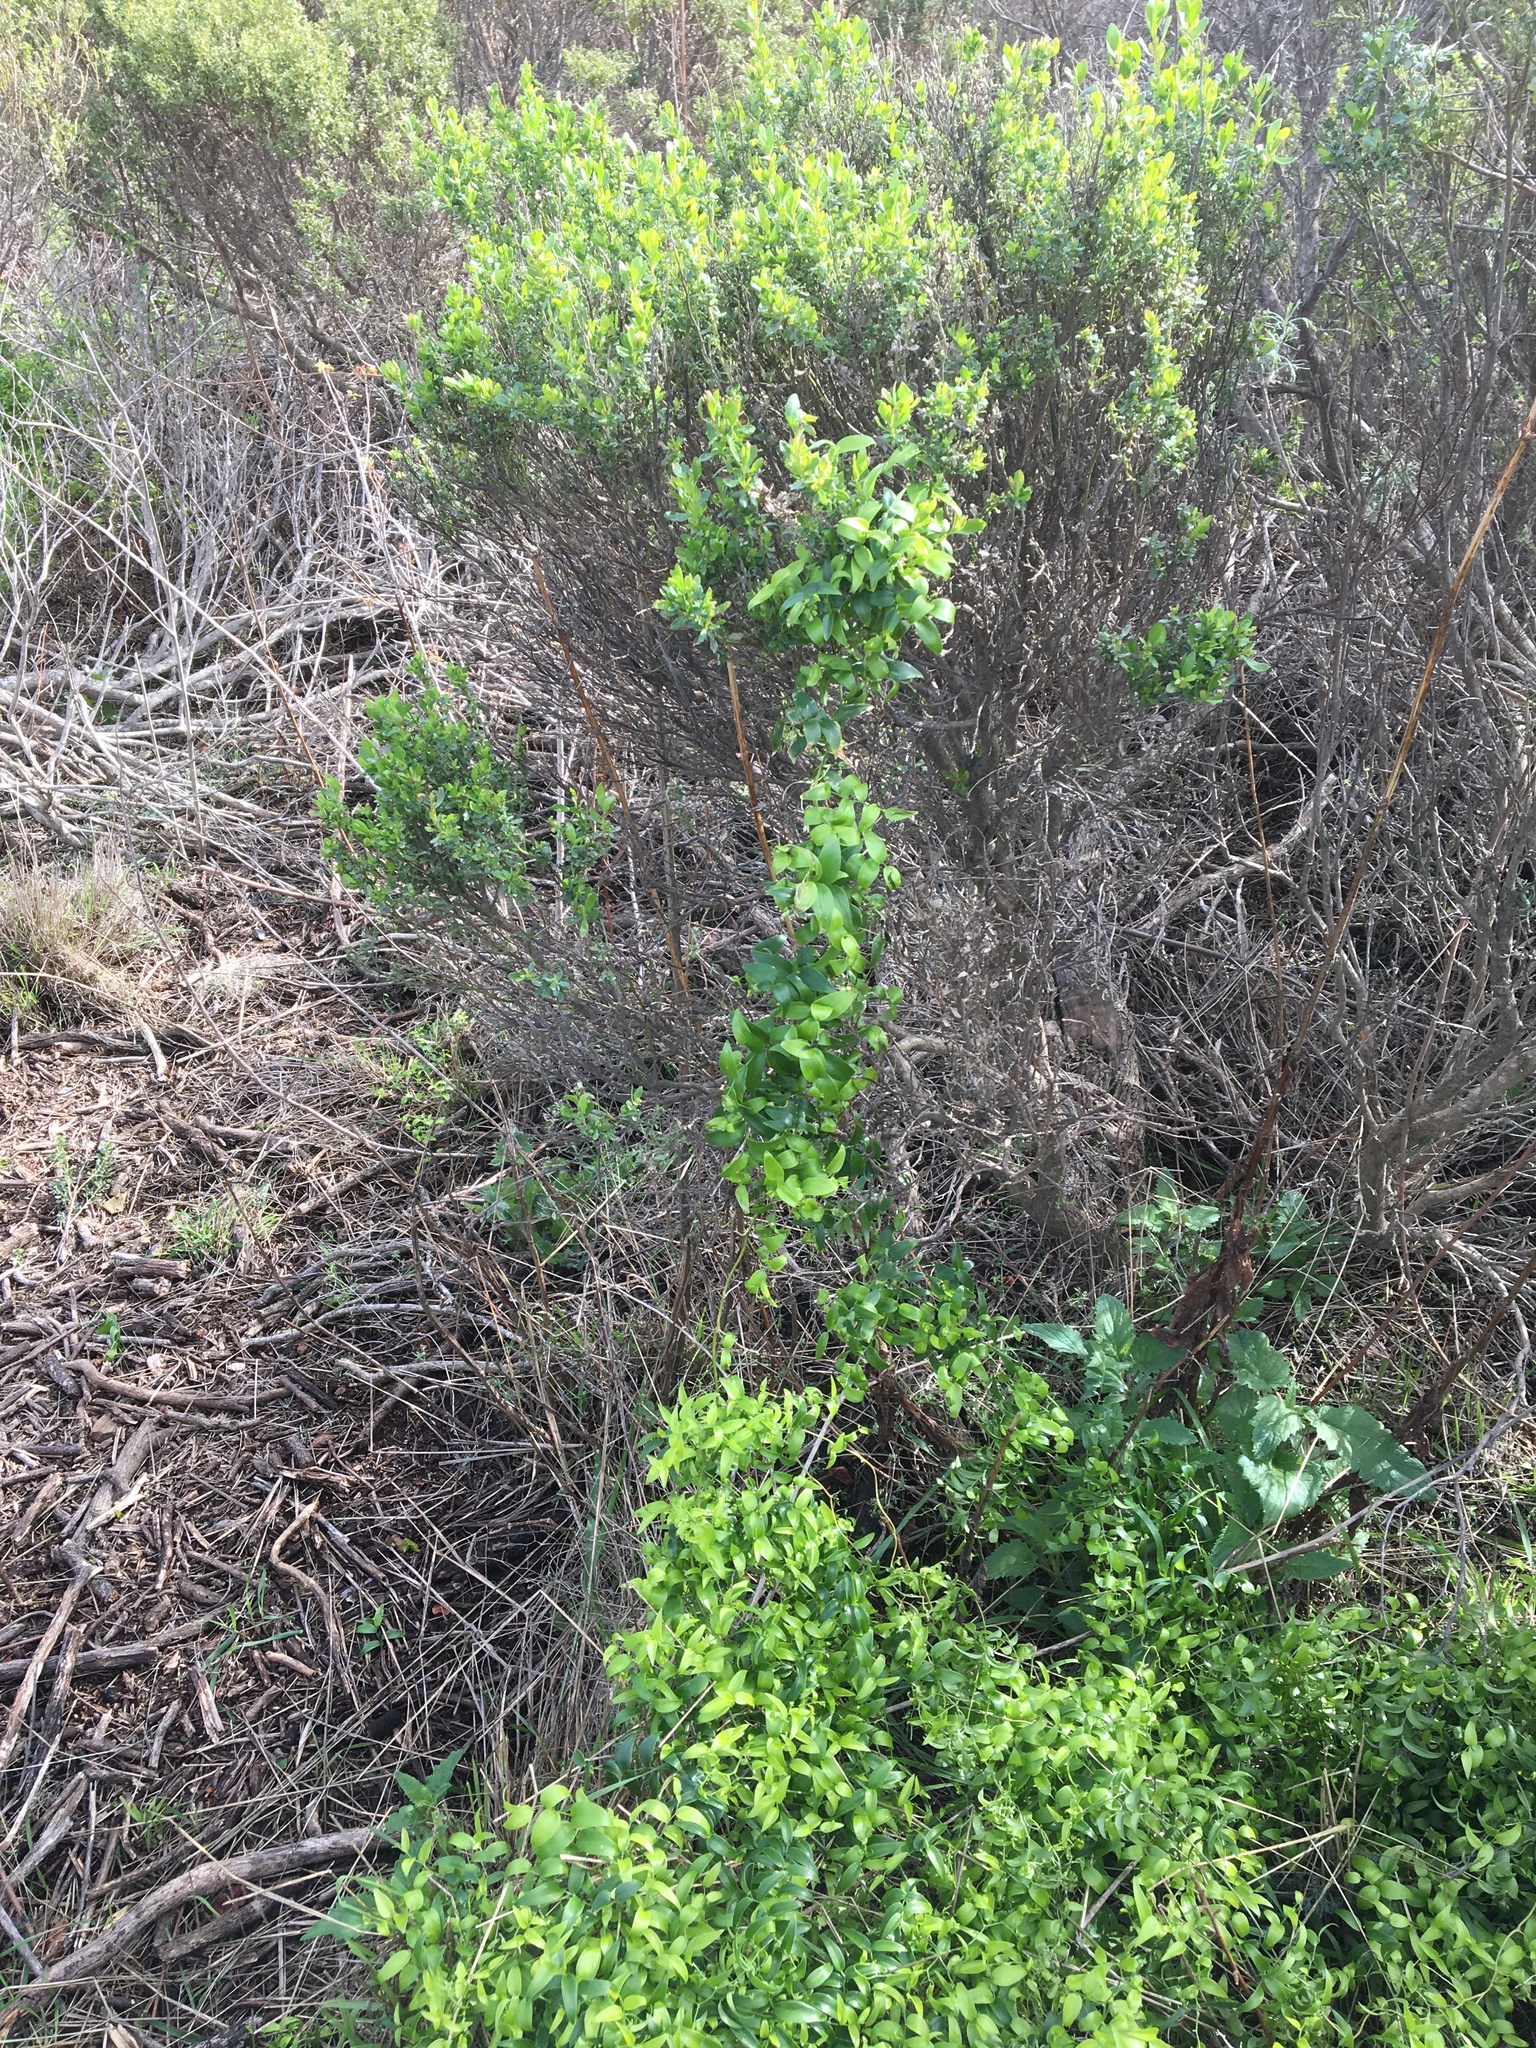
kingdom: Plantae
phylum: Tracheophyta
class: Liliopsida
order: Asparagales
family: Asparagaceae
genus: Asparagus
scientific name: Asparagus asparagoides
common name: African asparagus fern
